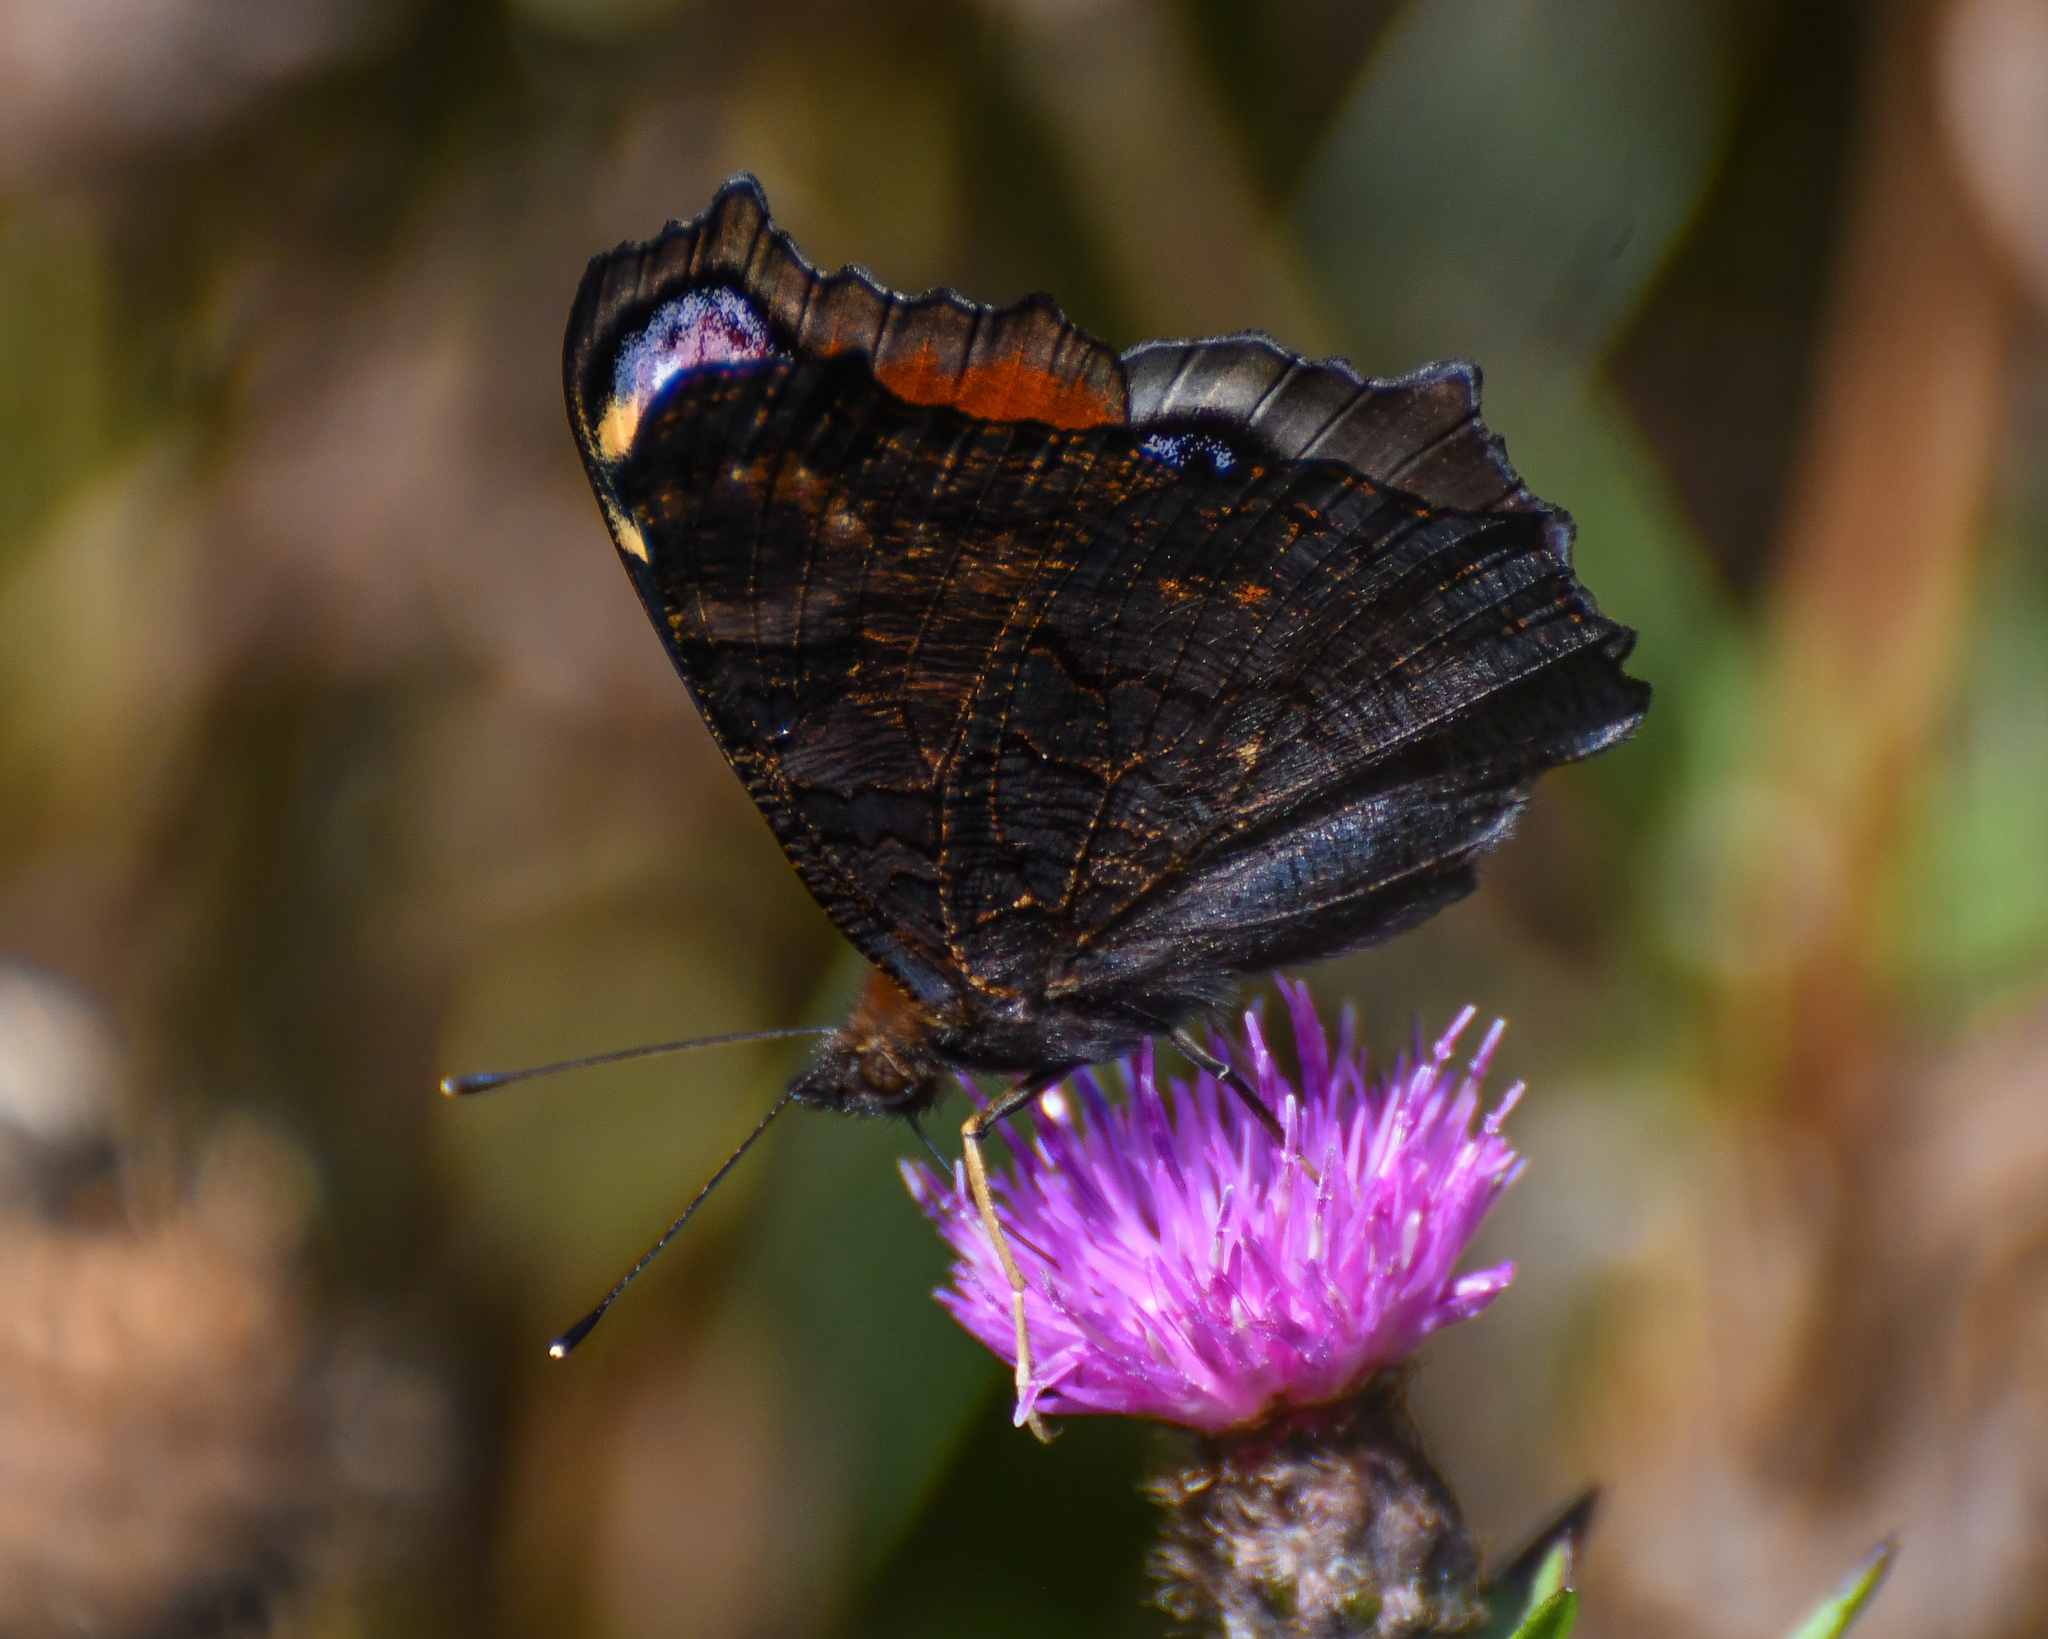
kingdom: Animalia
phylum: Arthropoda
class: Insecta
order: Lepidoptera
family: Nymphalidae
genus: Aglais
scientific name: Aglais io
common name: Peacock
